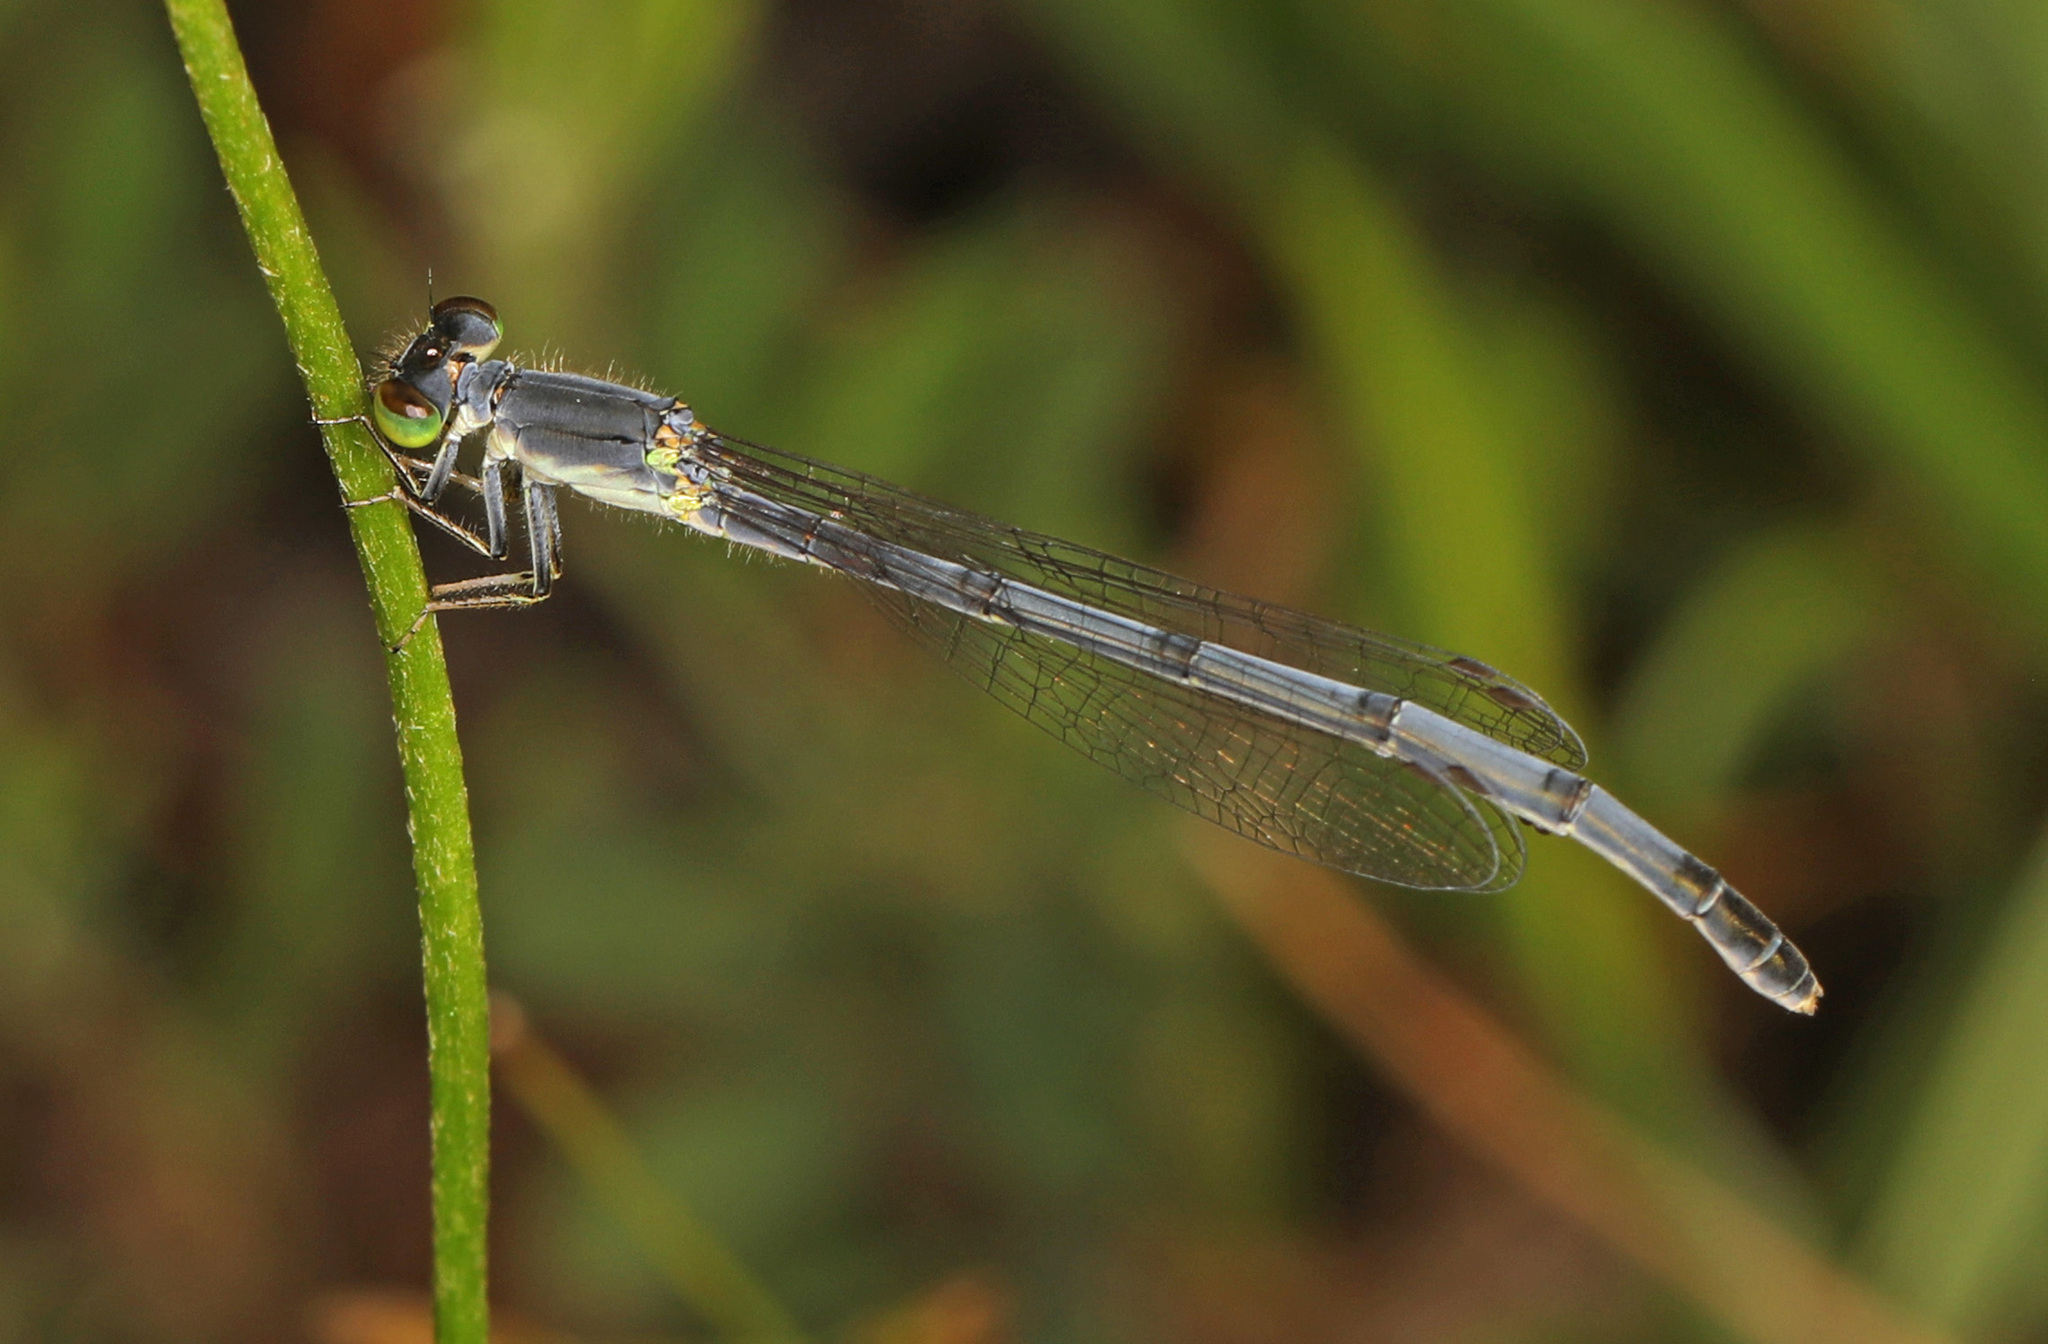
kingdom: Animalia
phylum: Arthropoda
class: Insecta
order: Odonata
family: Coenagrionidae
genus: Ischnura
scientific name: Ischnura verticalis
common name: Eastern forktail
